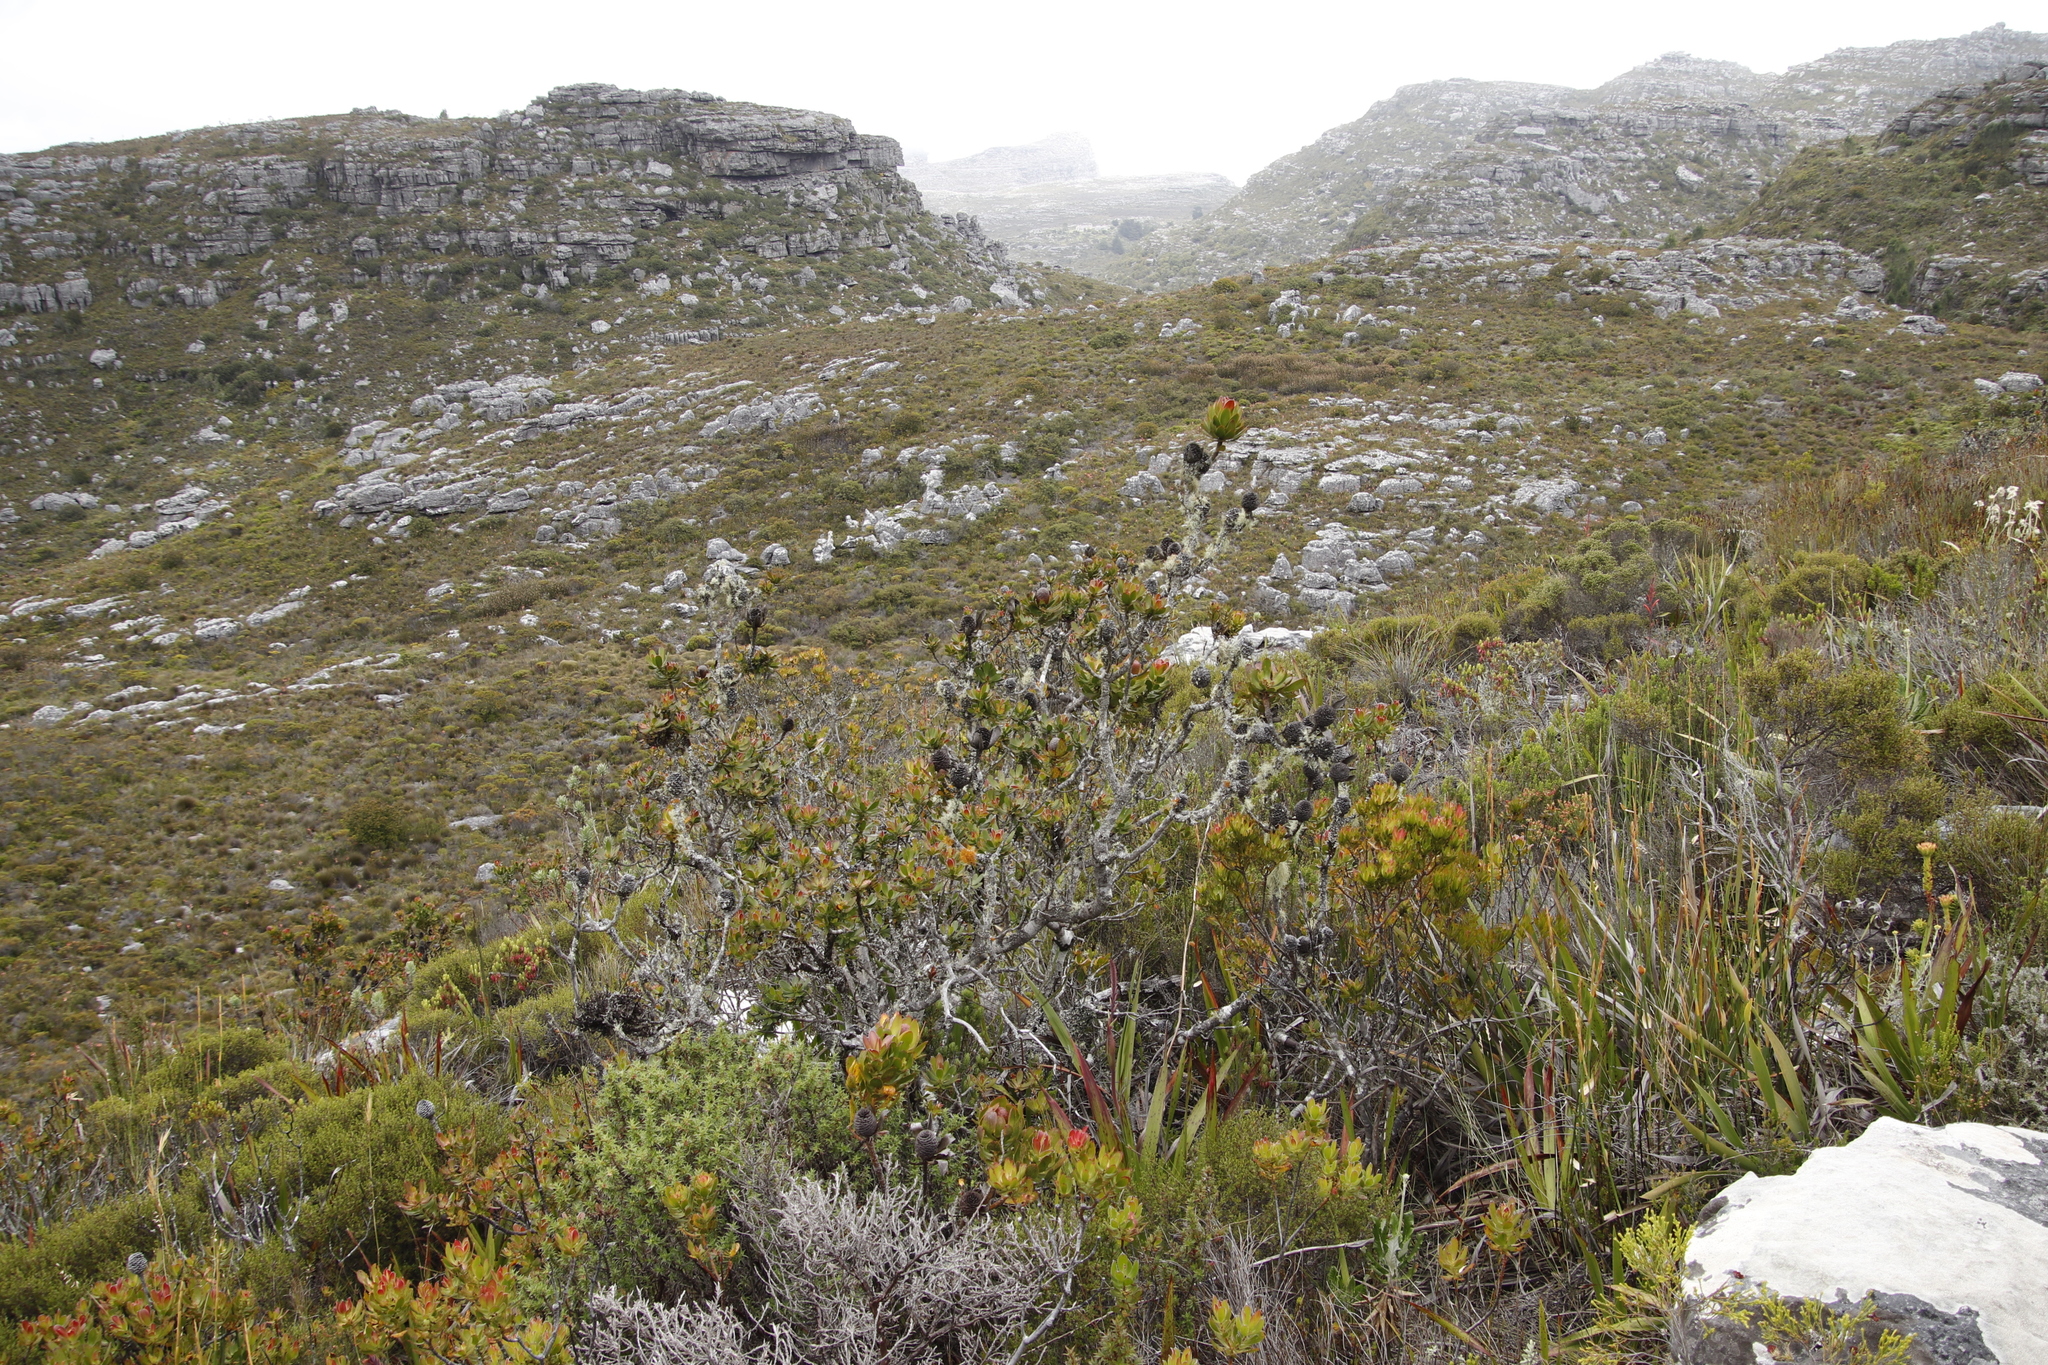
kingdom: Plantae
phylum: Tracheophyta
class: Magnoliopsida
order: Proteales
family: Proteaceae
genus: Leucadendron
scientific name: Leucadendron strobilinum
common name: Mountain rose
